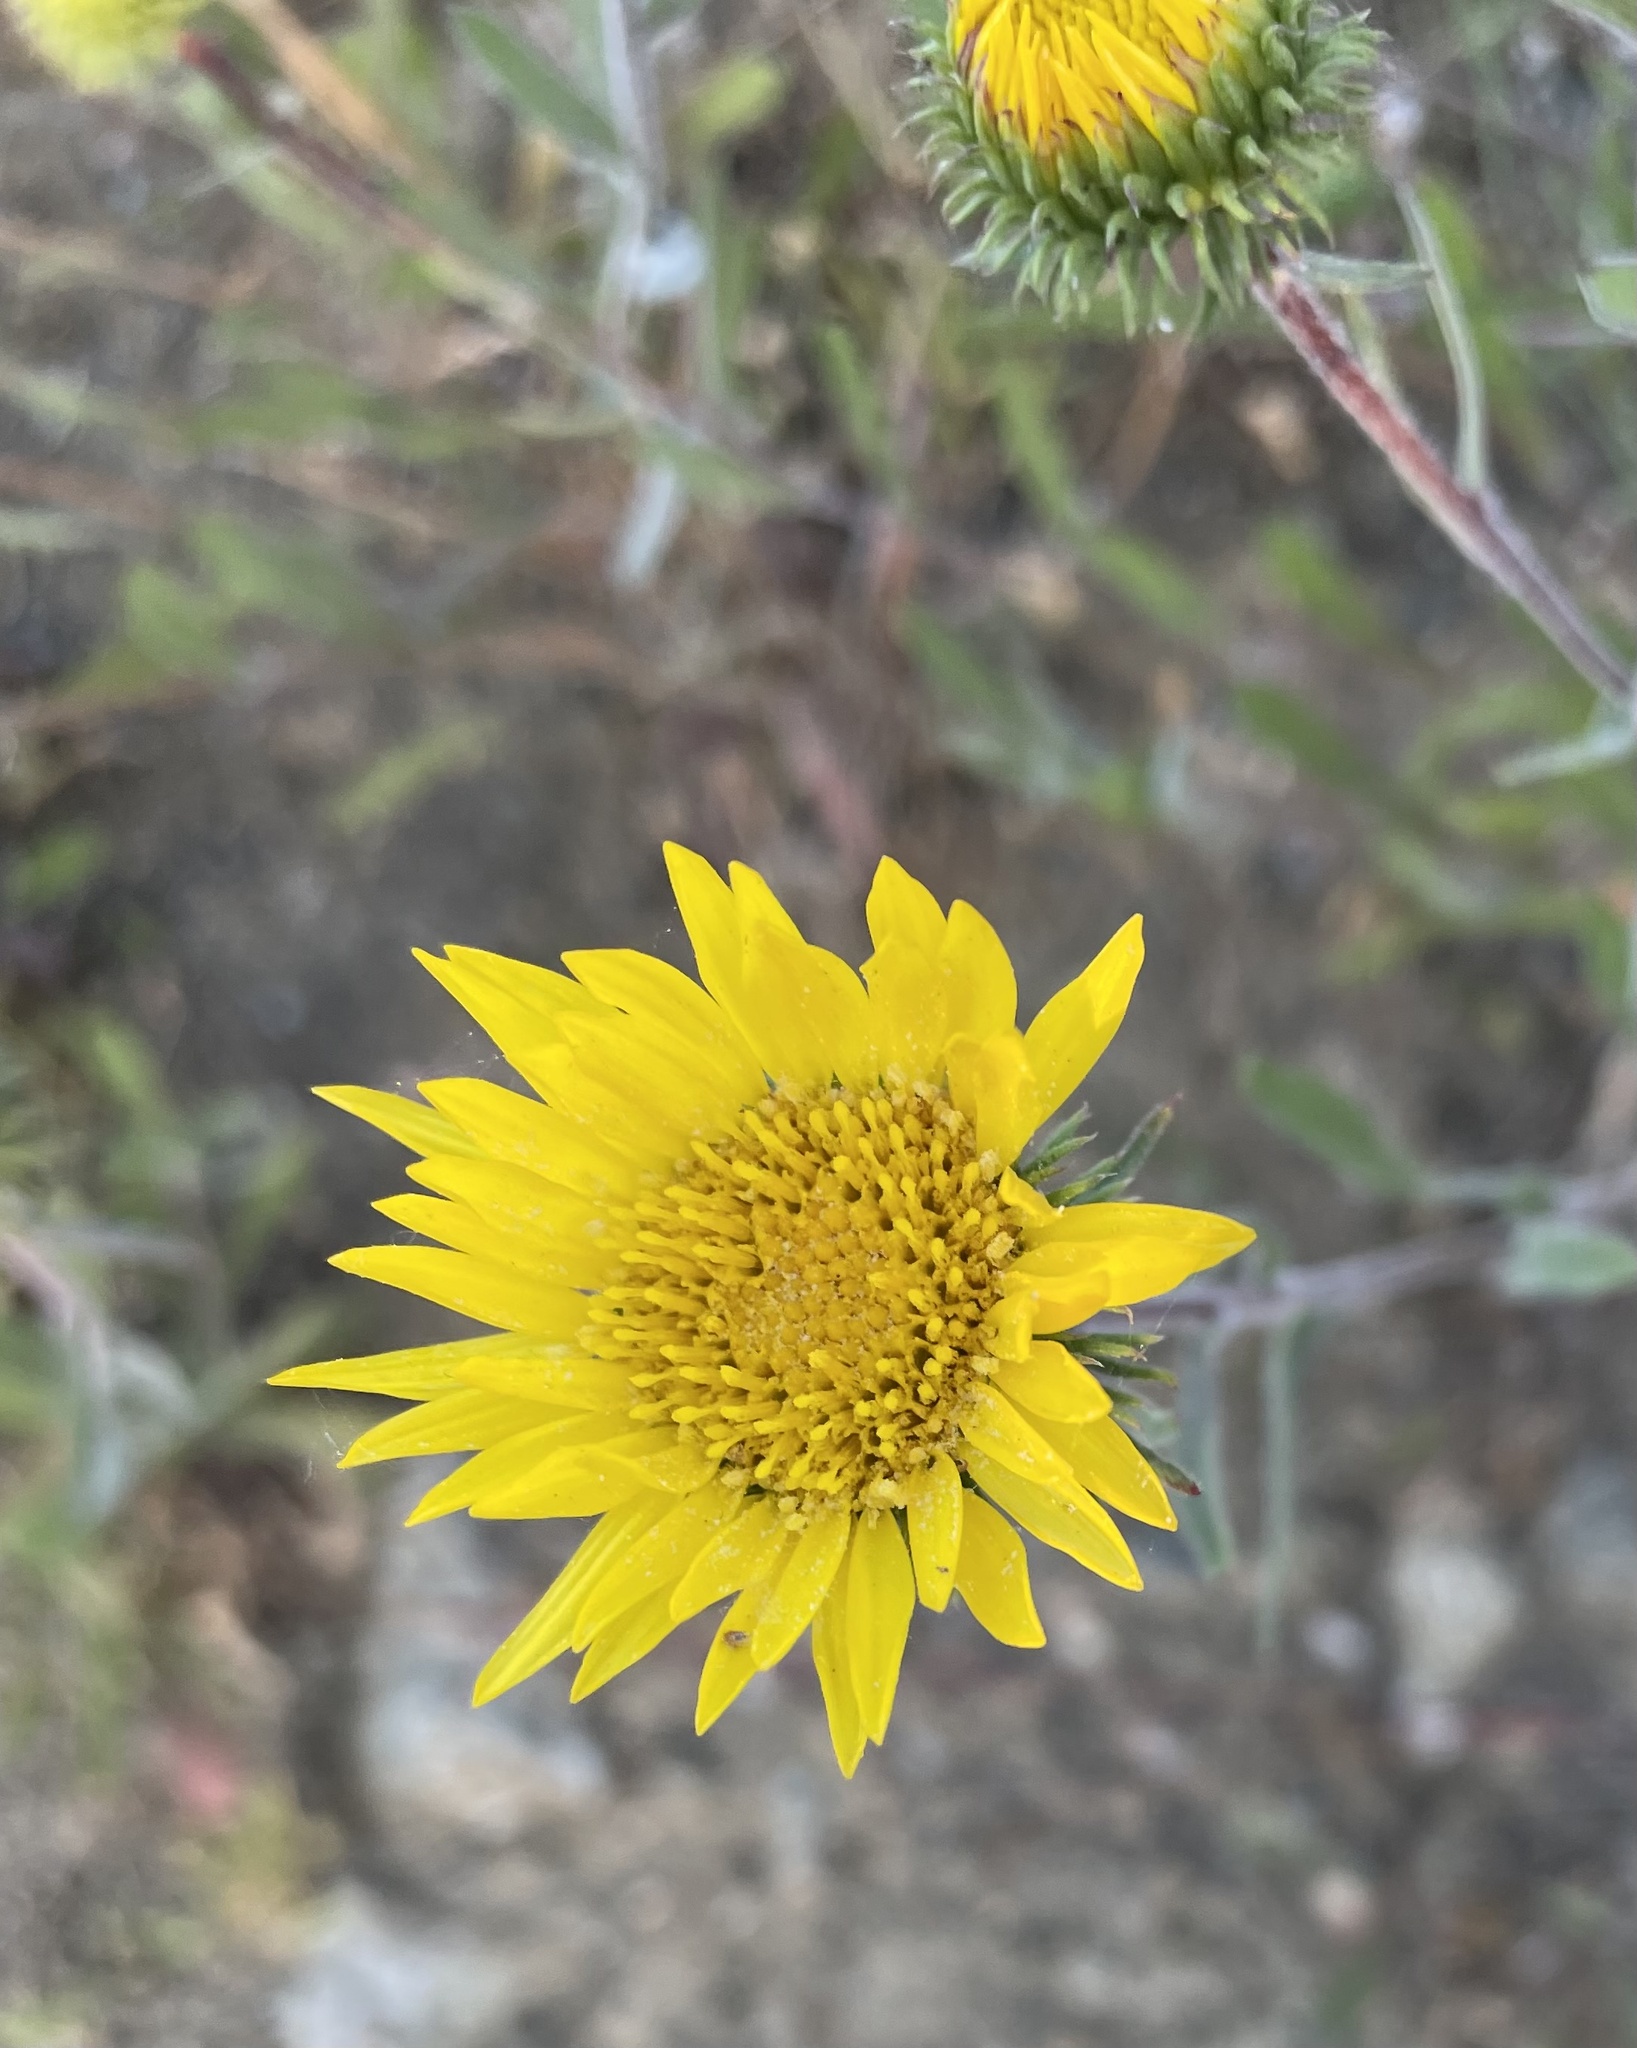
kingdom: Plantae
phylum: Tracheophyta
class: Magnoliopsida
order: Asterales
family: Asteraceae
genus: Grindelia
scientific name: Grindelia hirsutula
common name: Hairy gumweed
